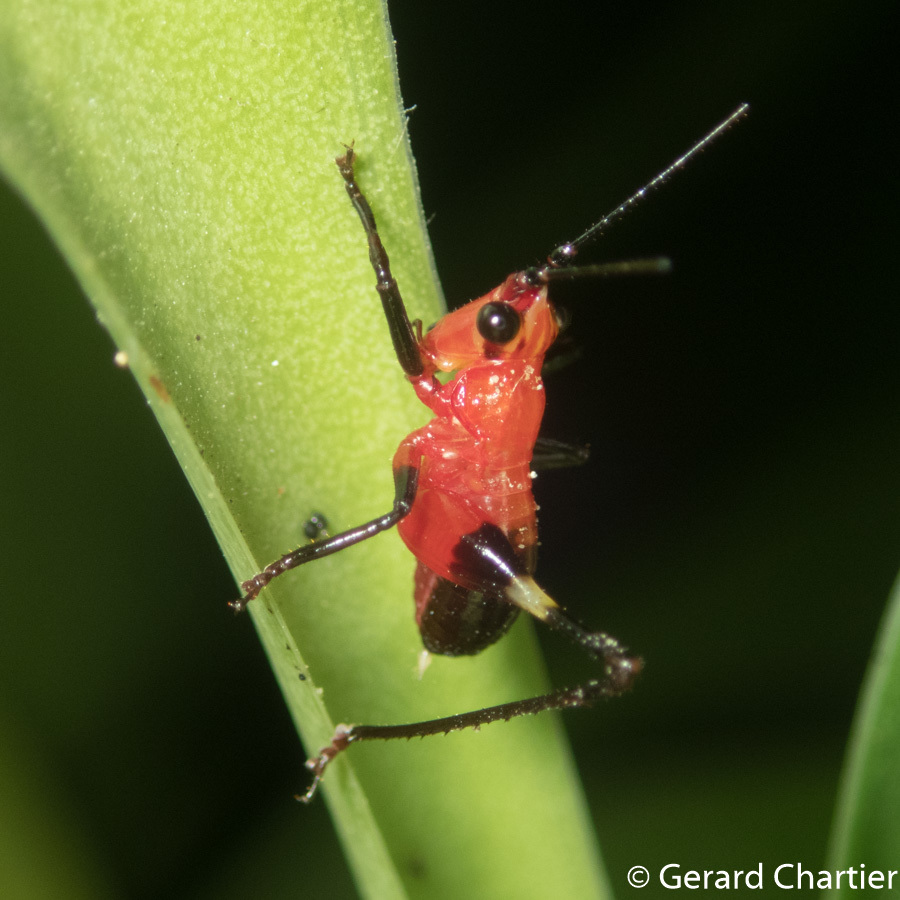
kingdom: Animalia
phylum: Arthropoda
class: Insecta
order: Orthoptera
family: Tettigoniidae
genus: Conocephalus
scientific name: Conocephalus melaenus
